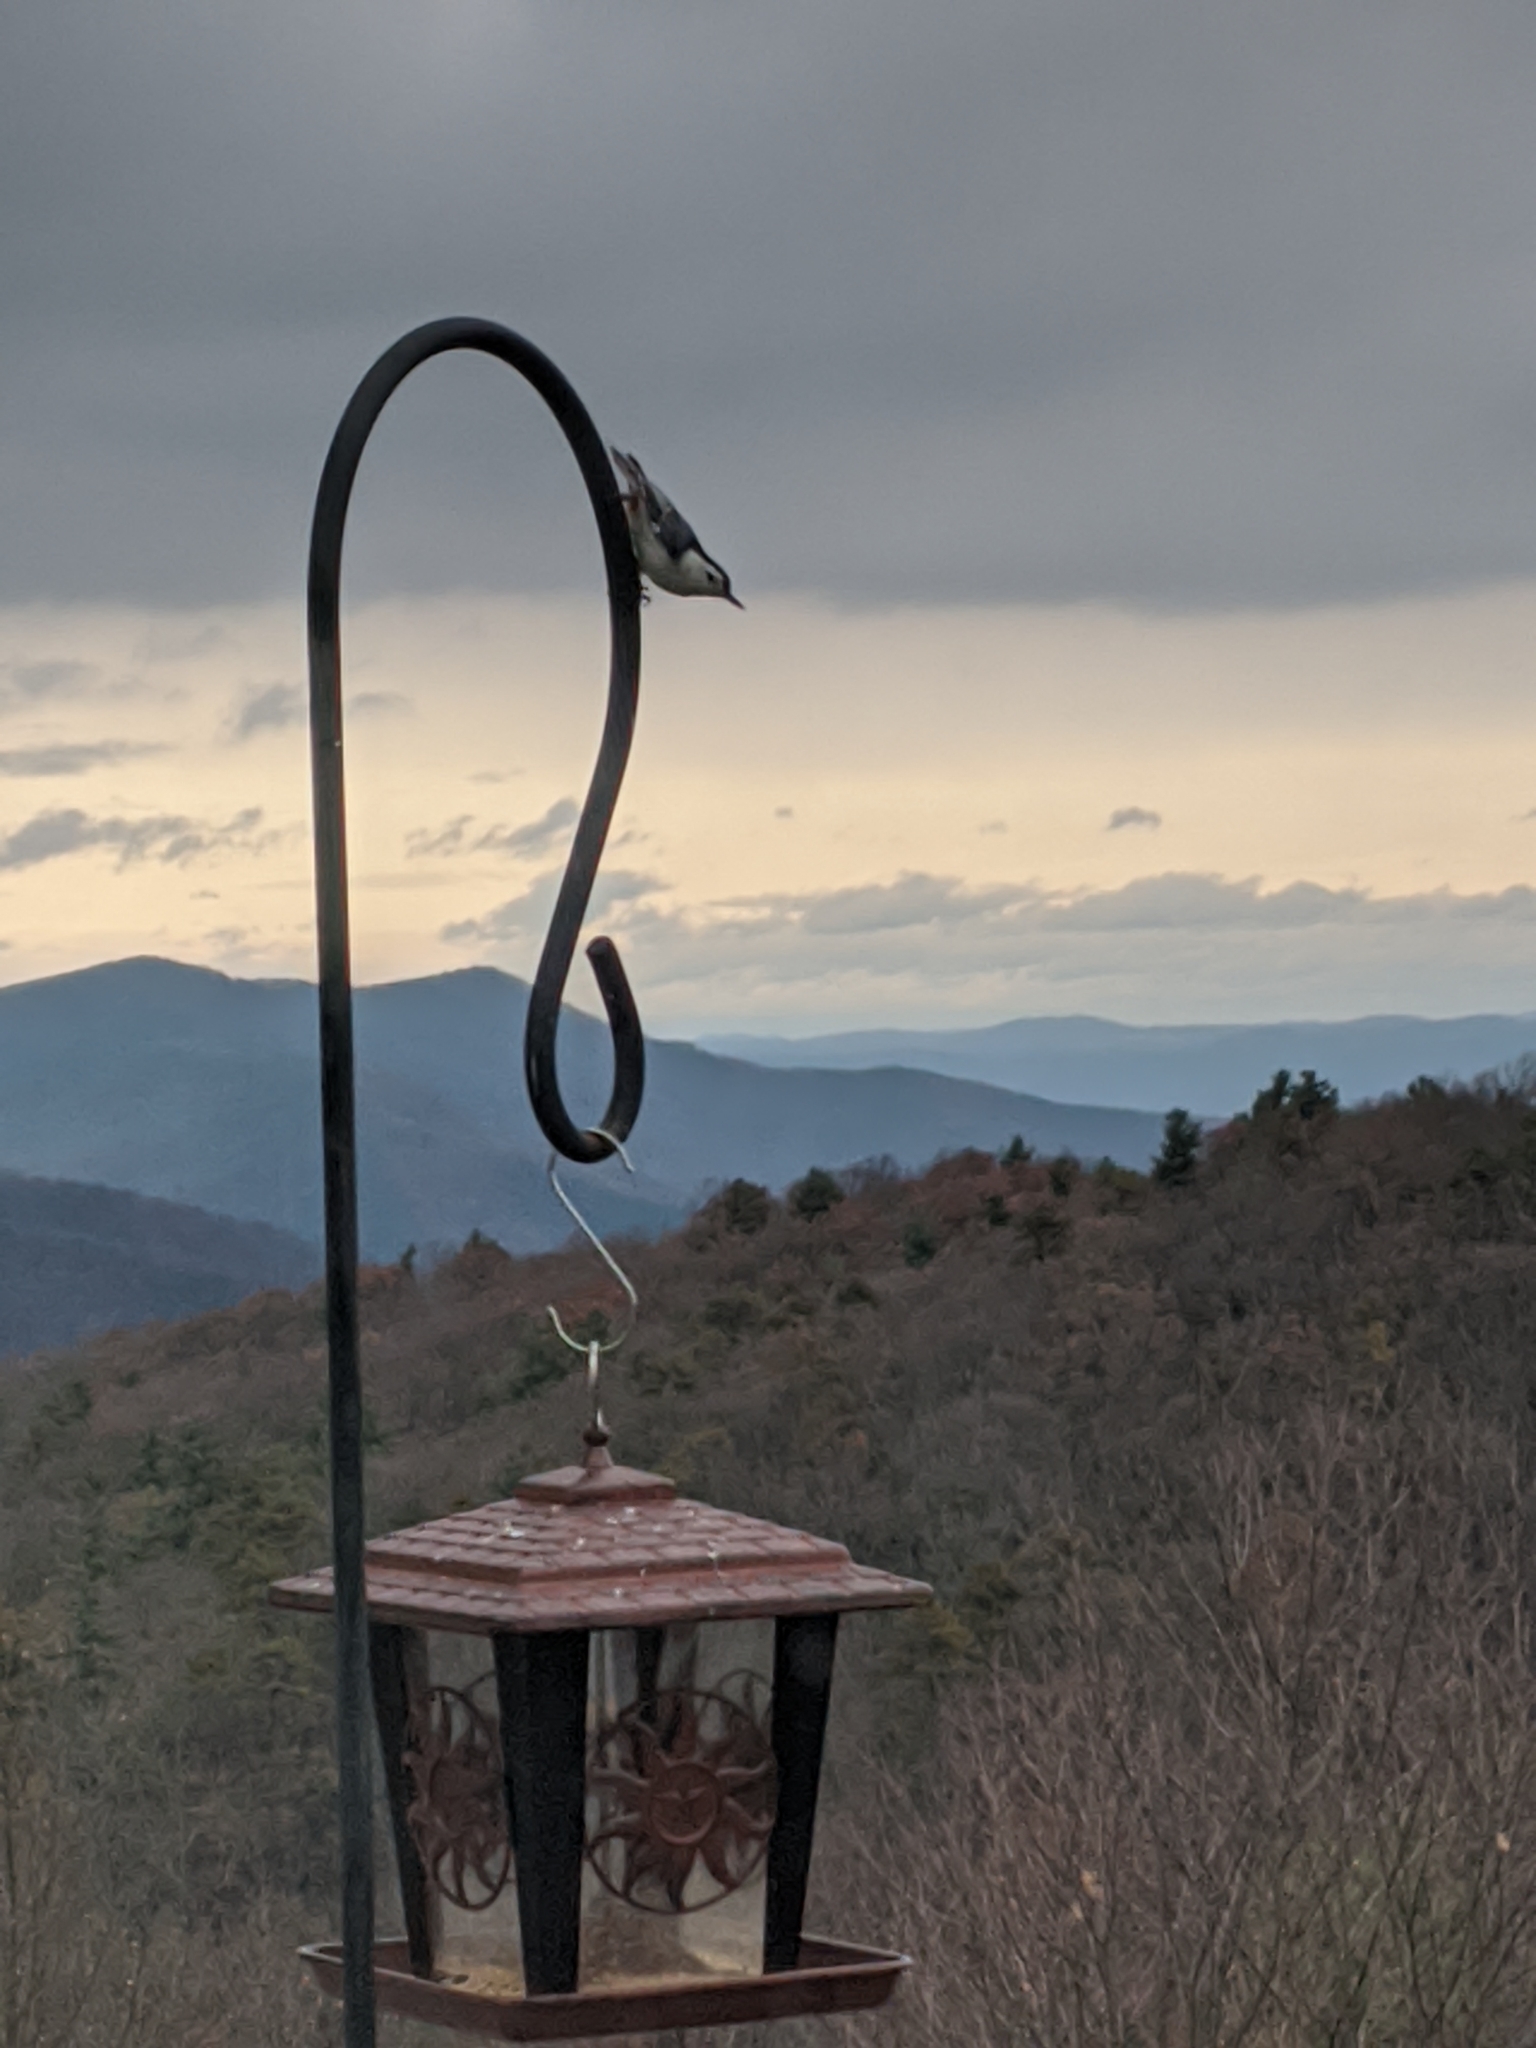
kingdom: Animalia
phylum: Chordata
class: Aves
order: Passeriformes
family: Sittidae
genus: Sitta
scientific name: Sitta carolinensis
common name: White-breasted nuthatch
